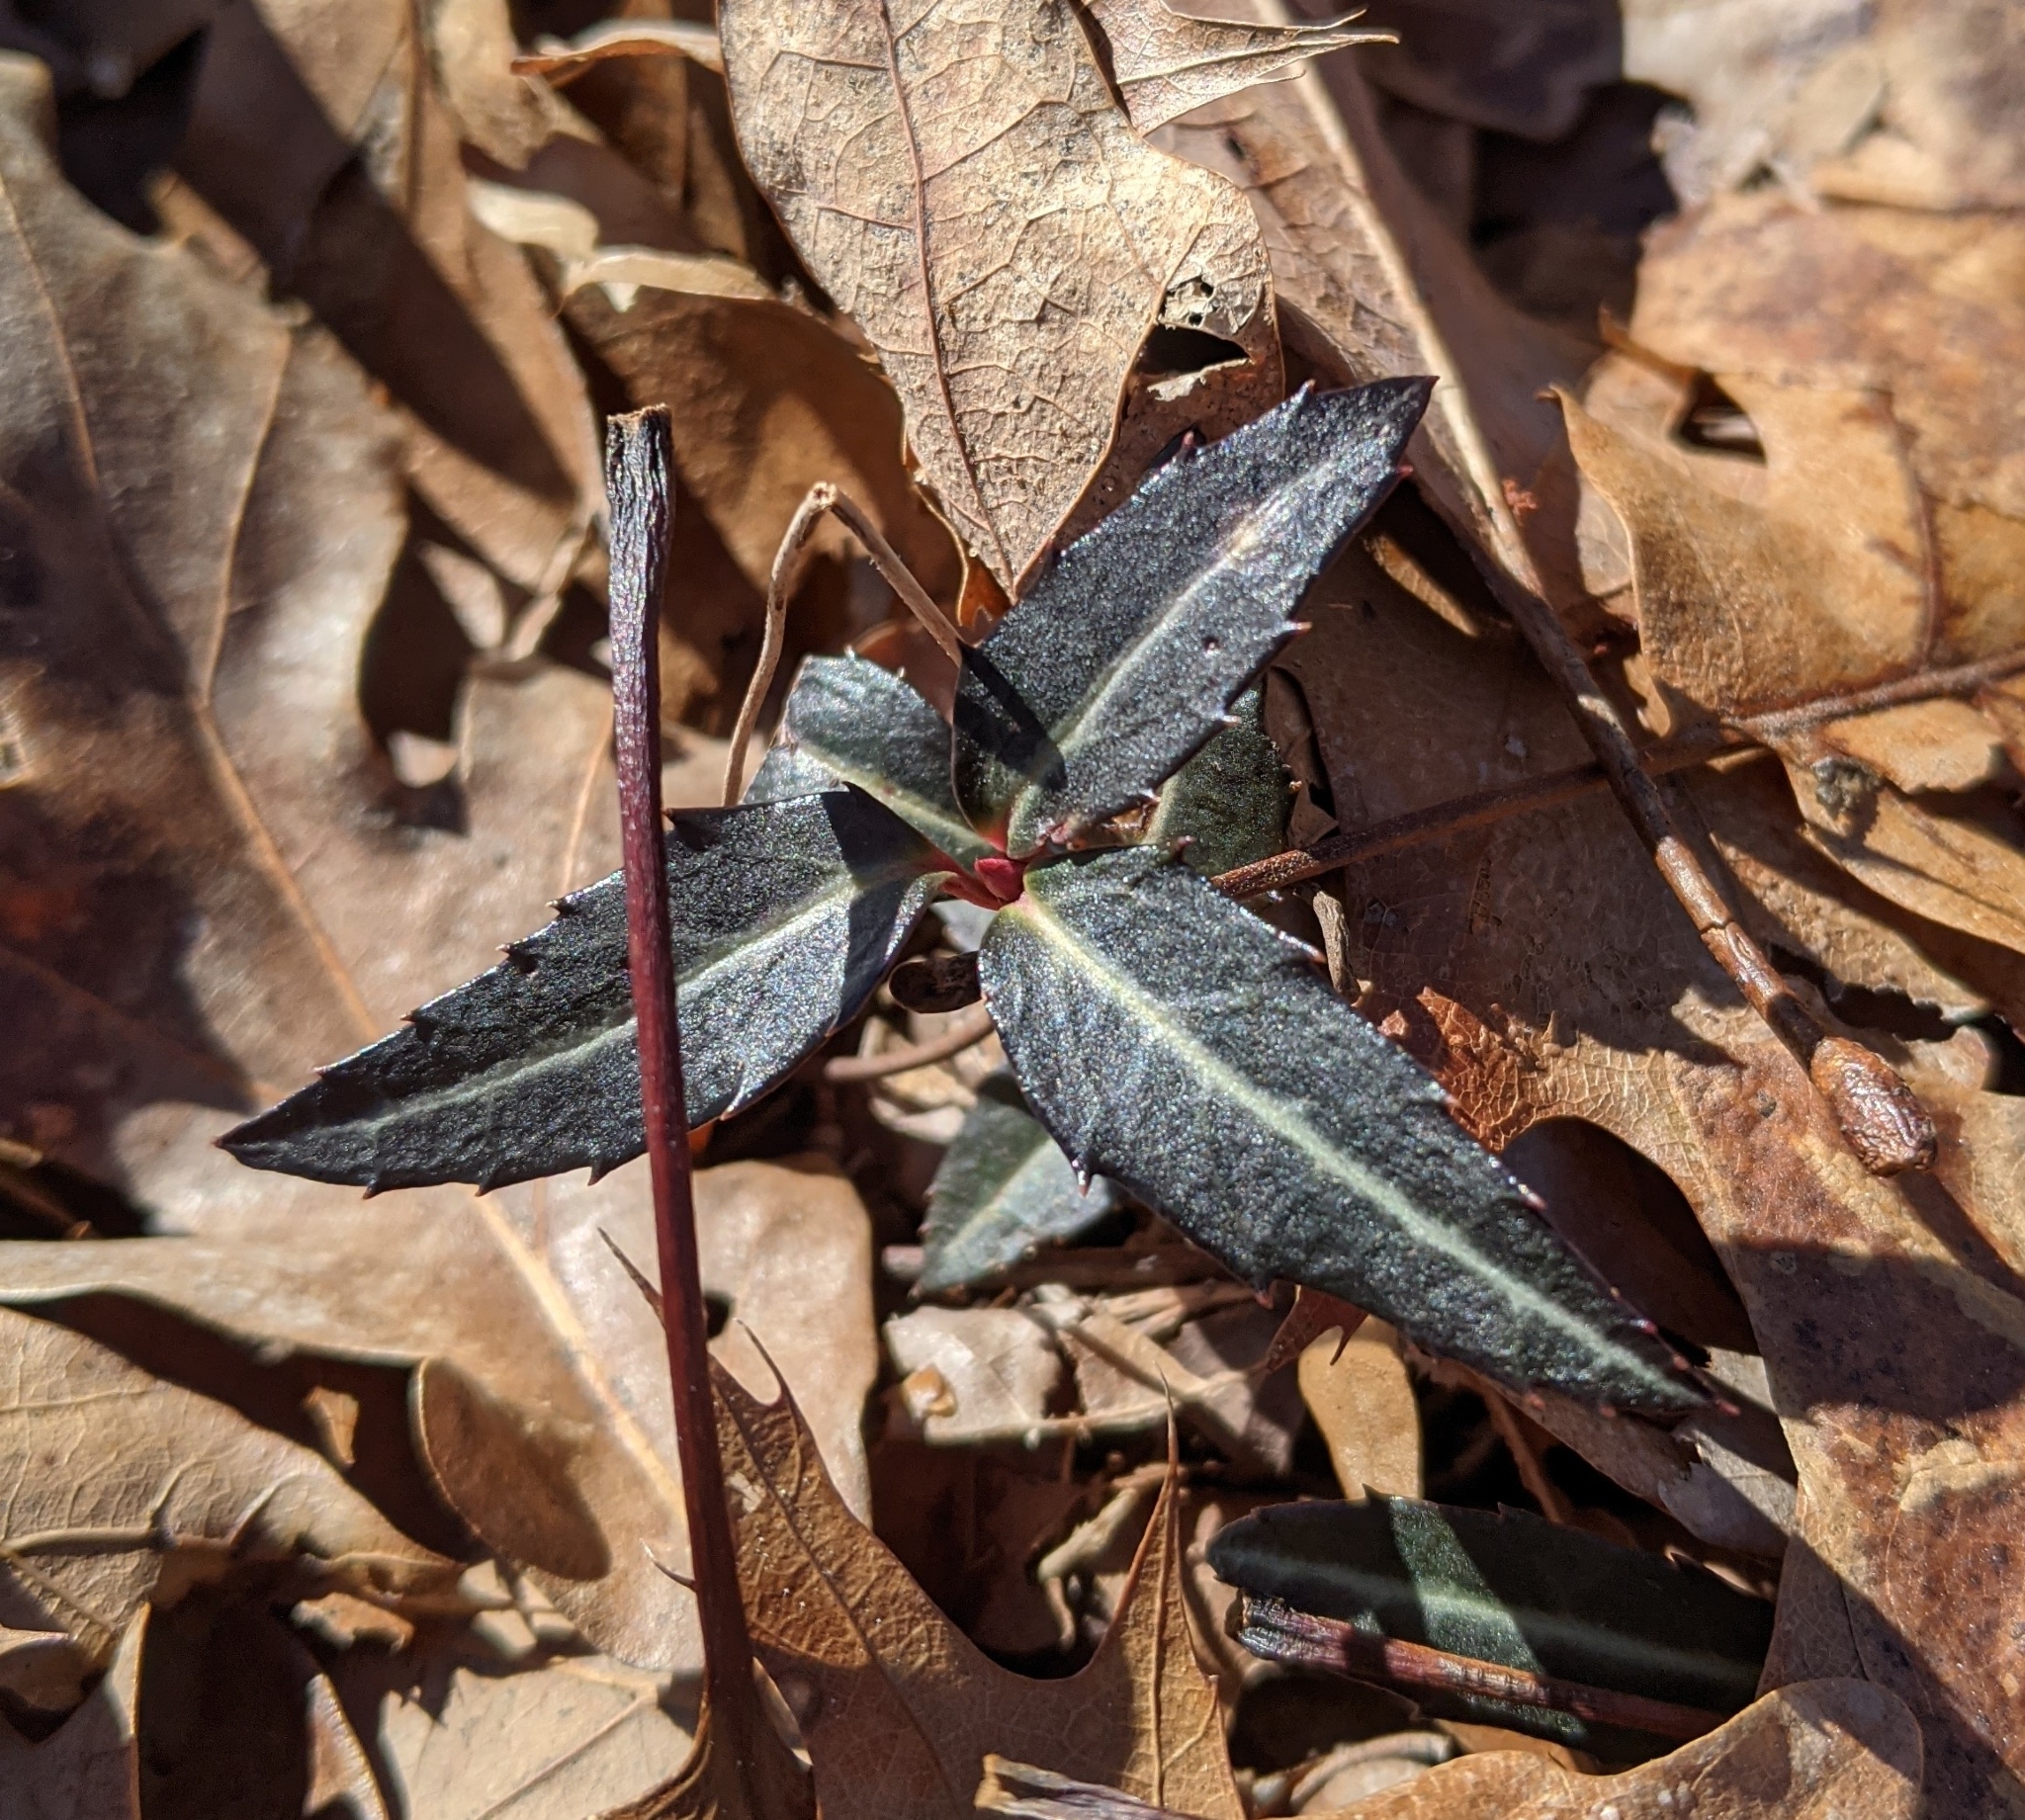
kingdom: Plantae
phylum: Tracheophyta
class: Magnoliopsida
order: Ericales
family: Ericaceae
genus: Chimaphila
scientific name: Chimaphila maculata
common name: Spotted pipsissewa
